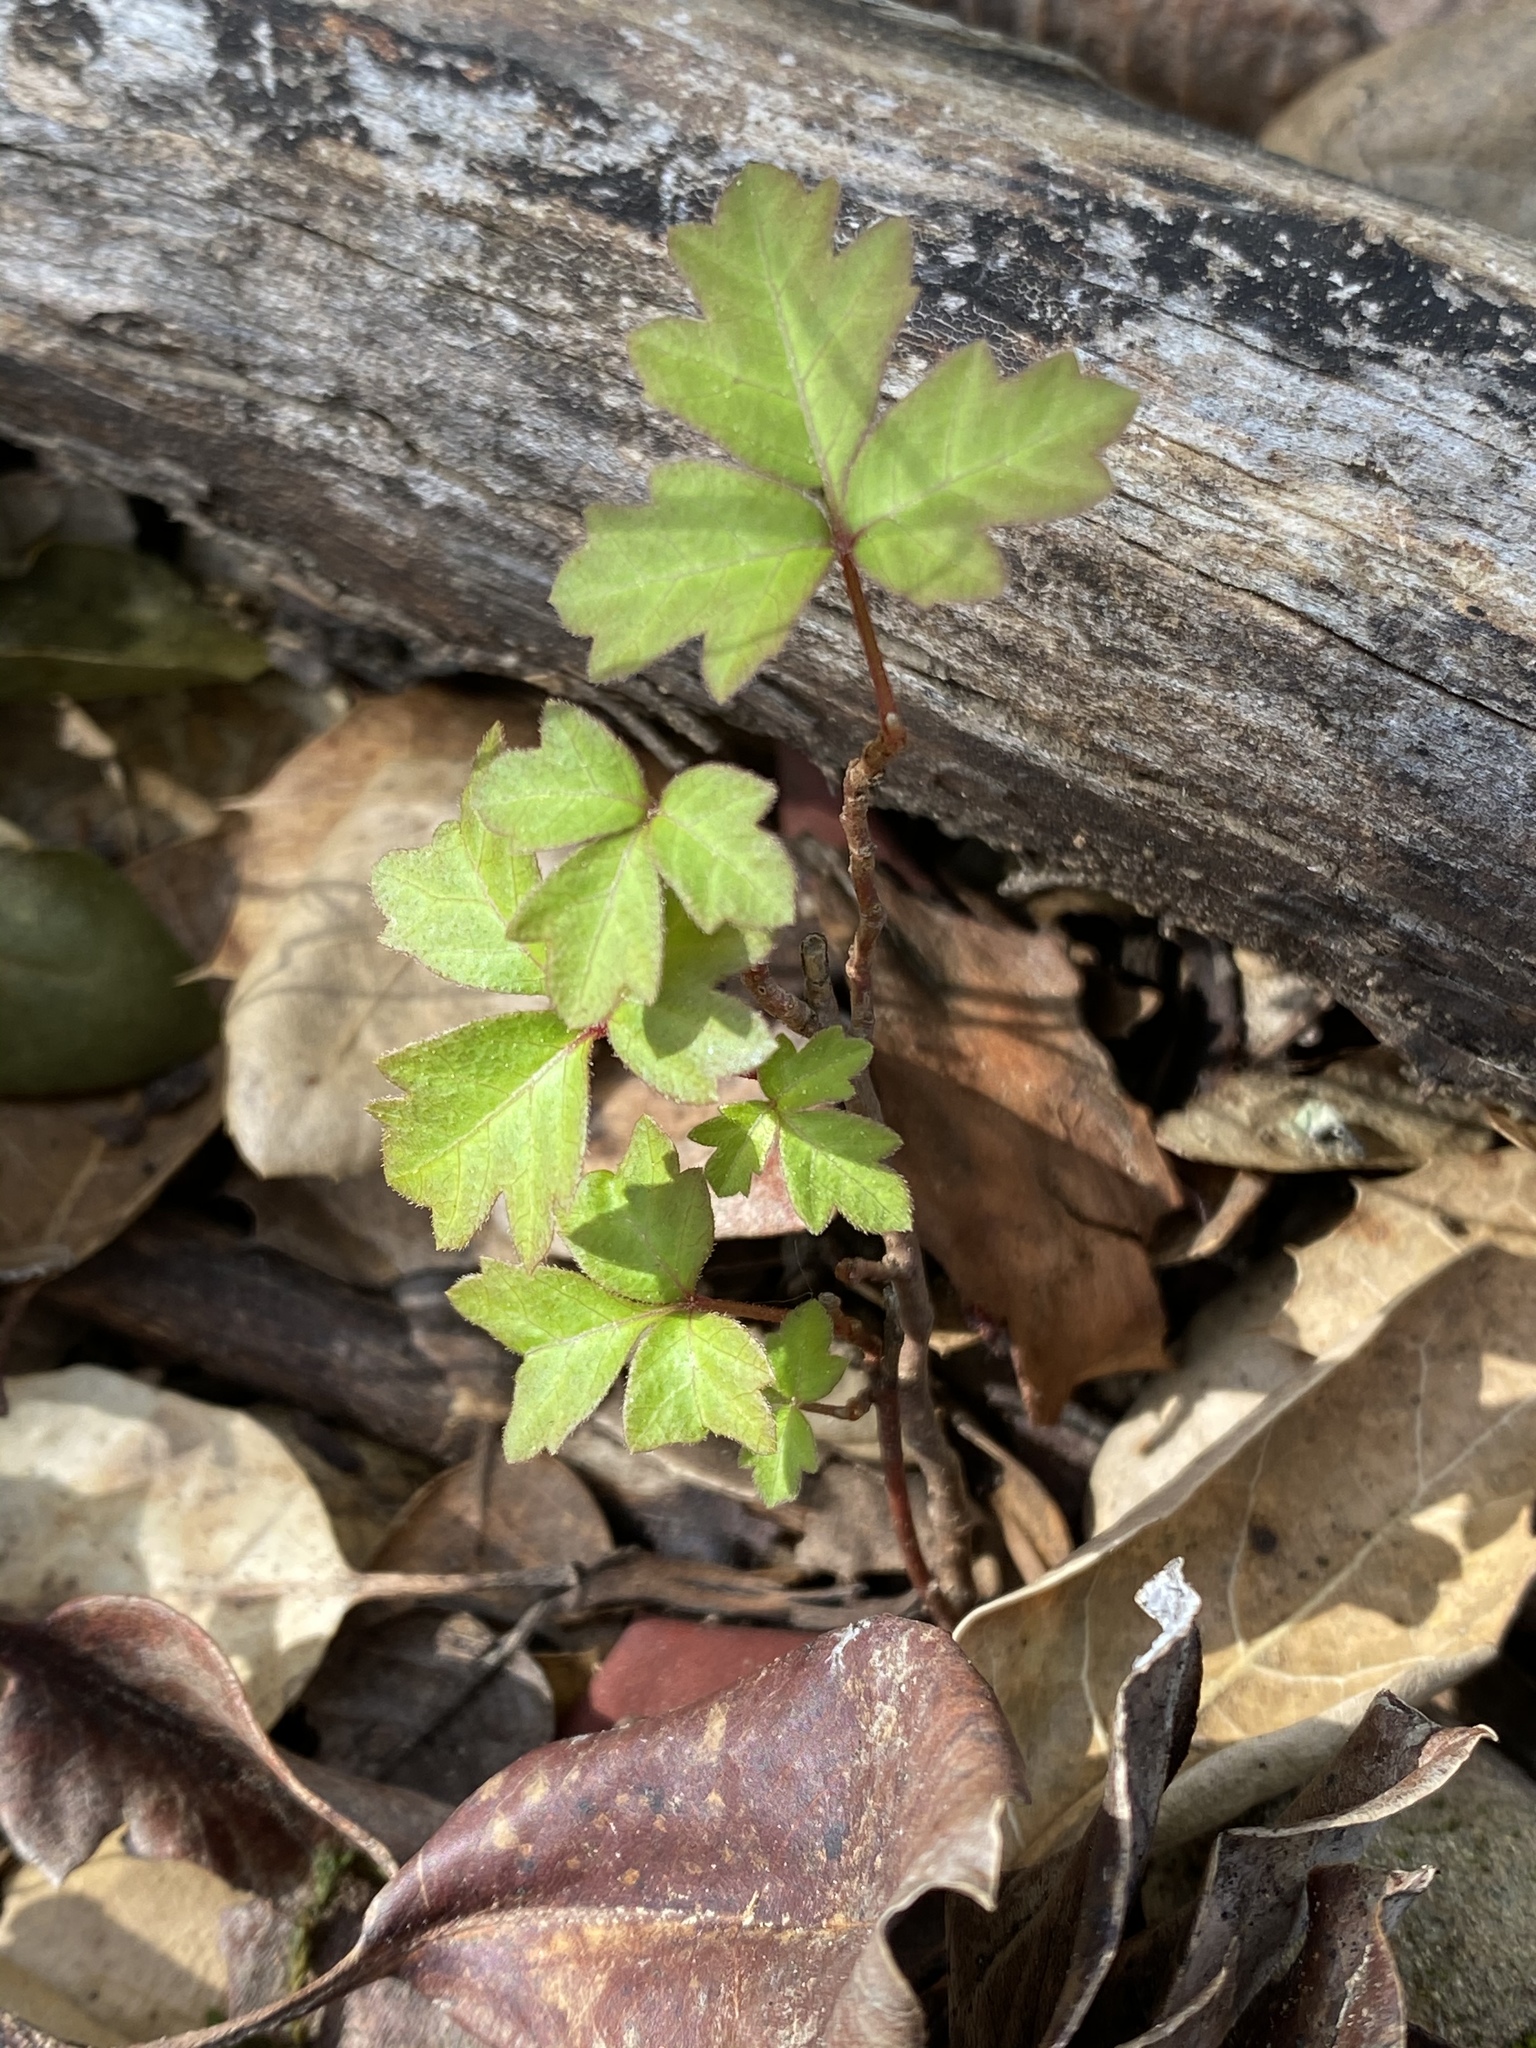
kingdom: Plantae
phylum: Tracheophyta
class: Magnoliopsida
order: Sapindales
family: Anacardiaceae
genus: Toxicodendron
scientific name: Toxicodendron diversilobum
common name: Pacific poison-oak
